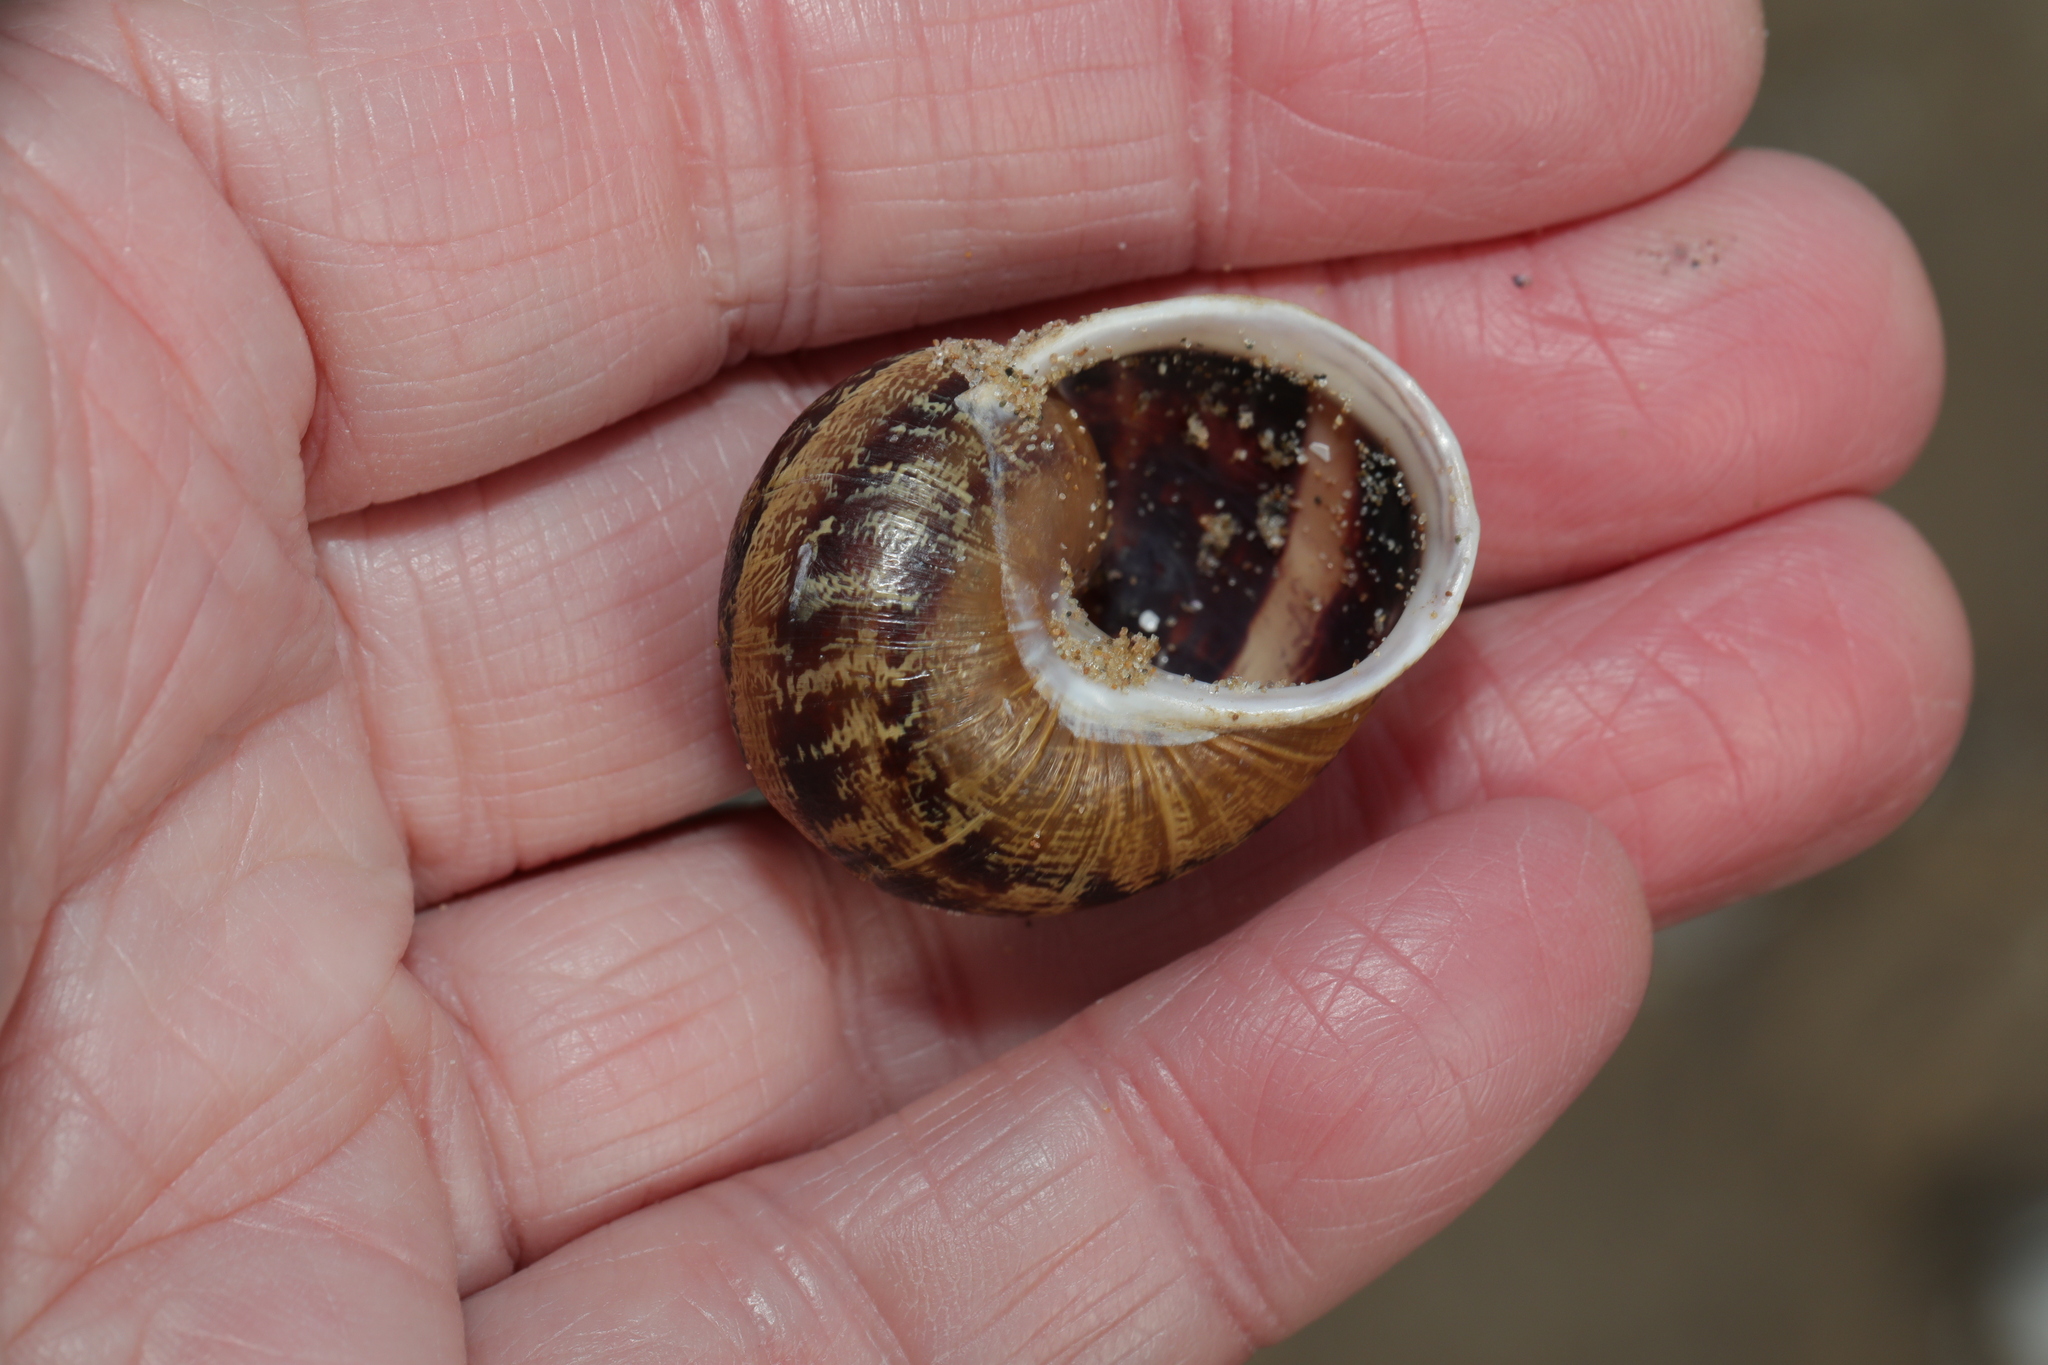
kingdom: Animalia
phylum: Mollusca
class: Gastropoda
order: Stylommatophora
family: Helicidae
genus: Cornu
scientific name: Cornu aspersum
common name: Brown garden snail
